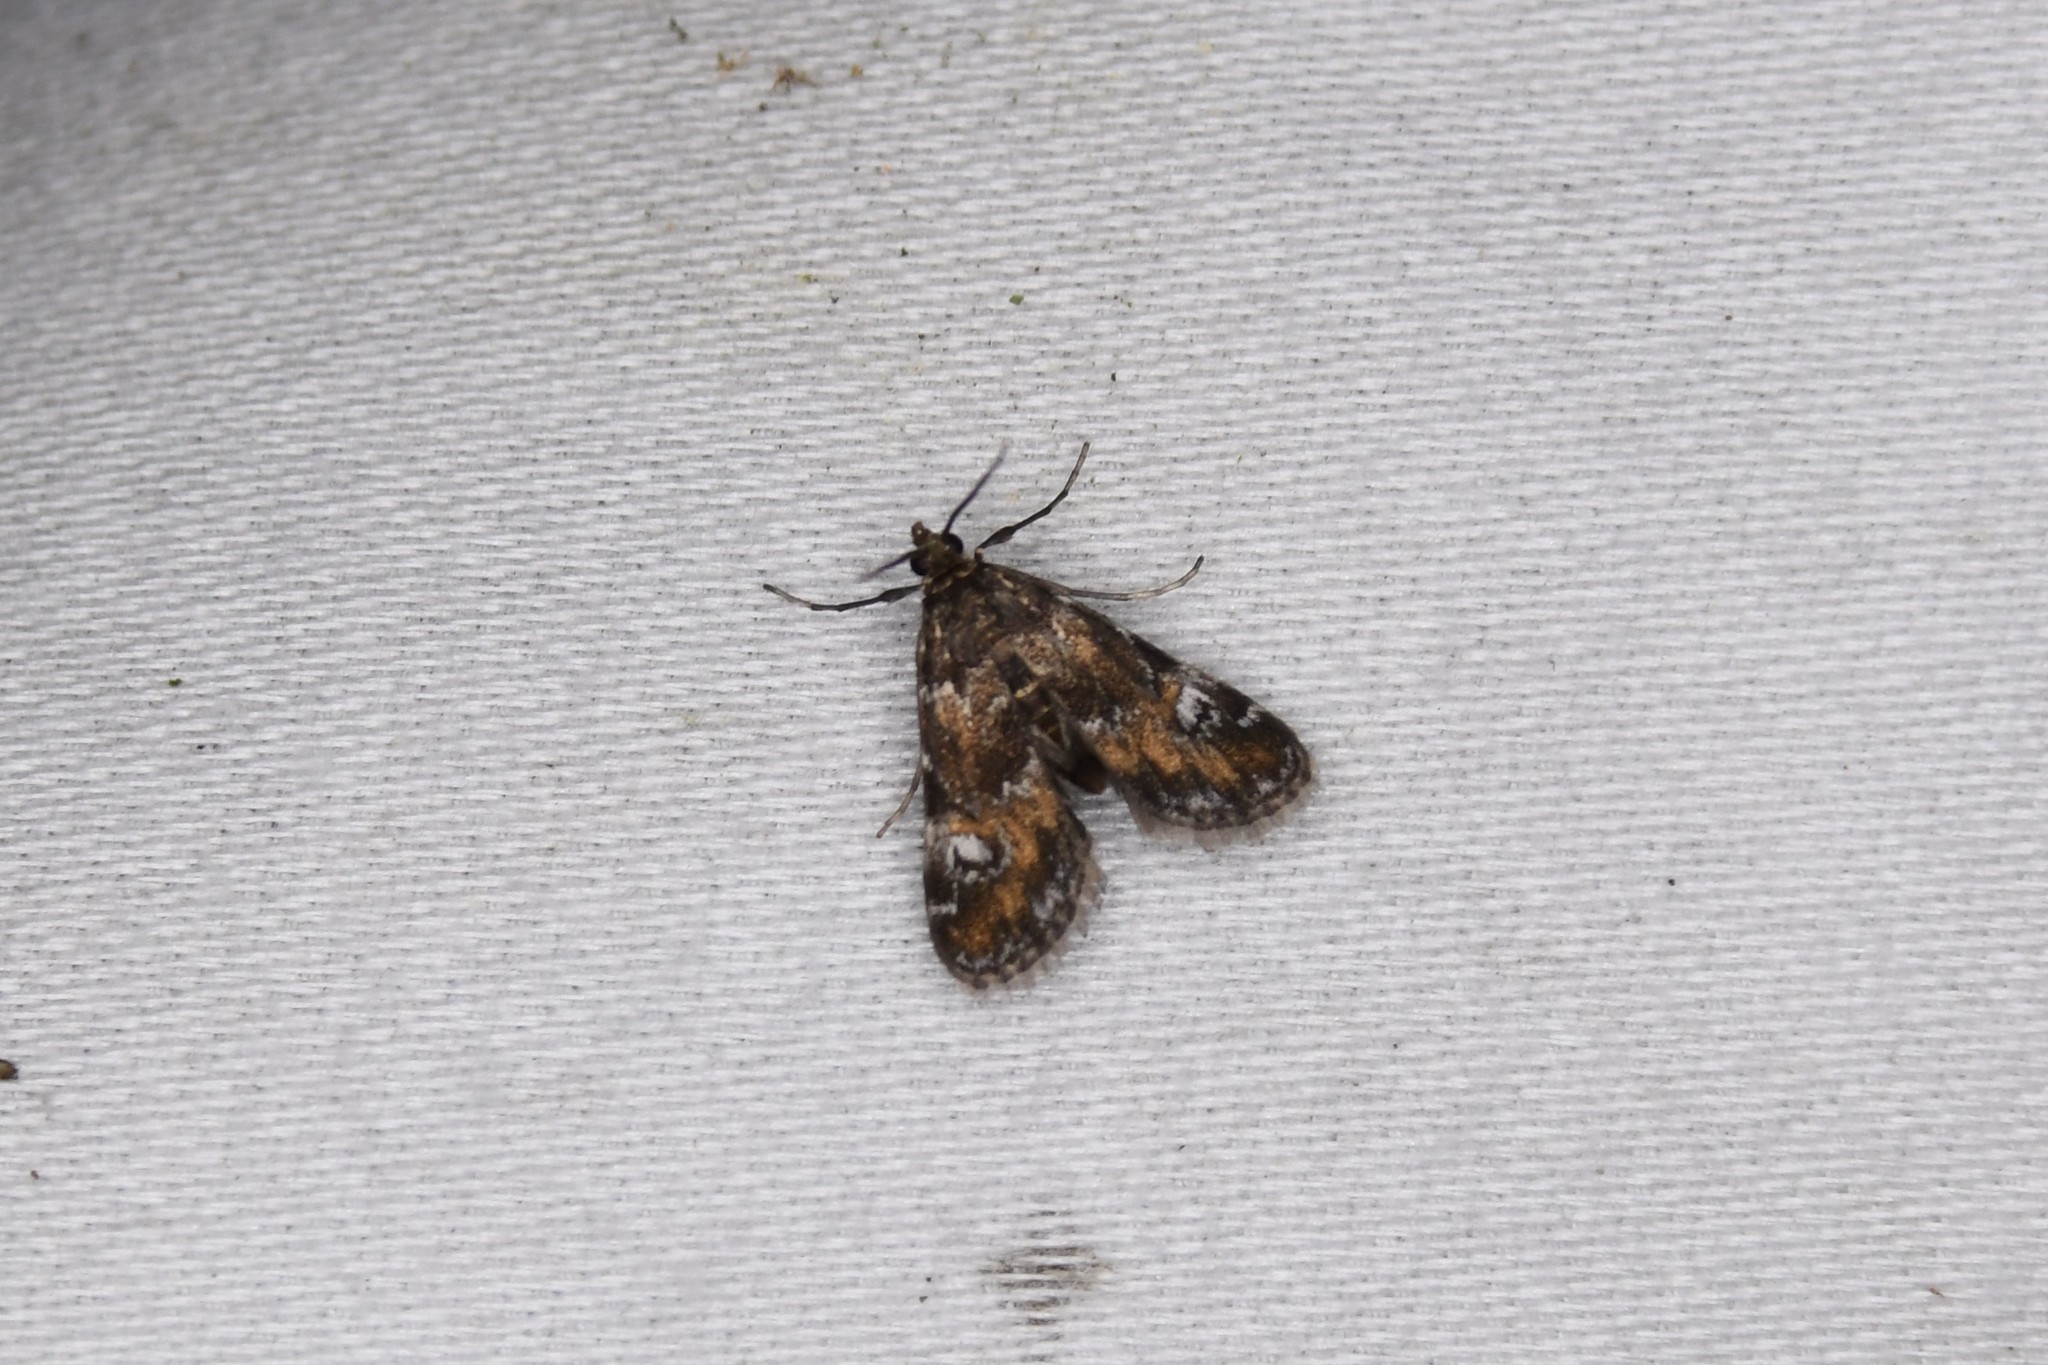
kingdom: Animalia
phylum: Arthropoda
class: Insecta
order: Lepidoptera
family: Crambidae
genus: Elophila
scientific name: Elophila obliteralis
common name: Waterlily leafcutter moth
